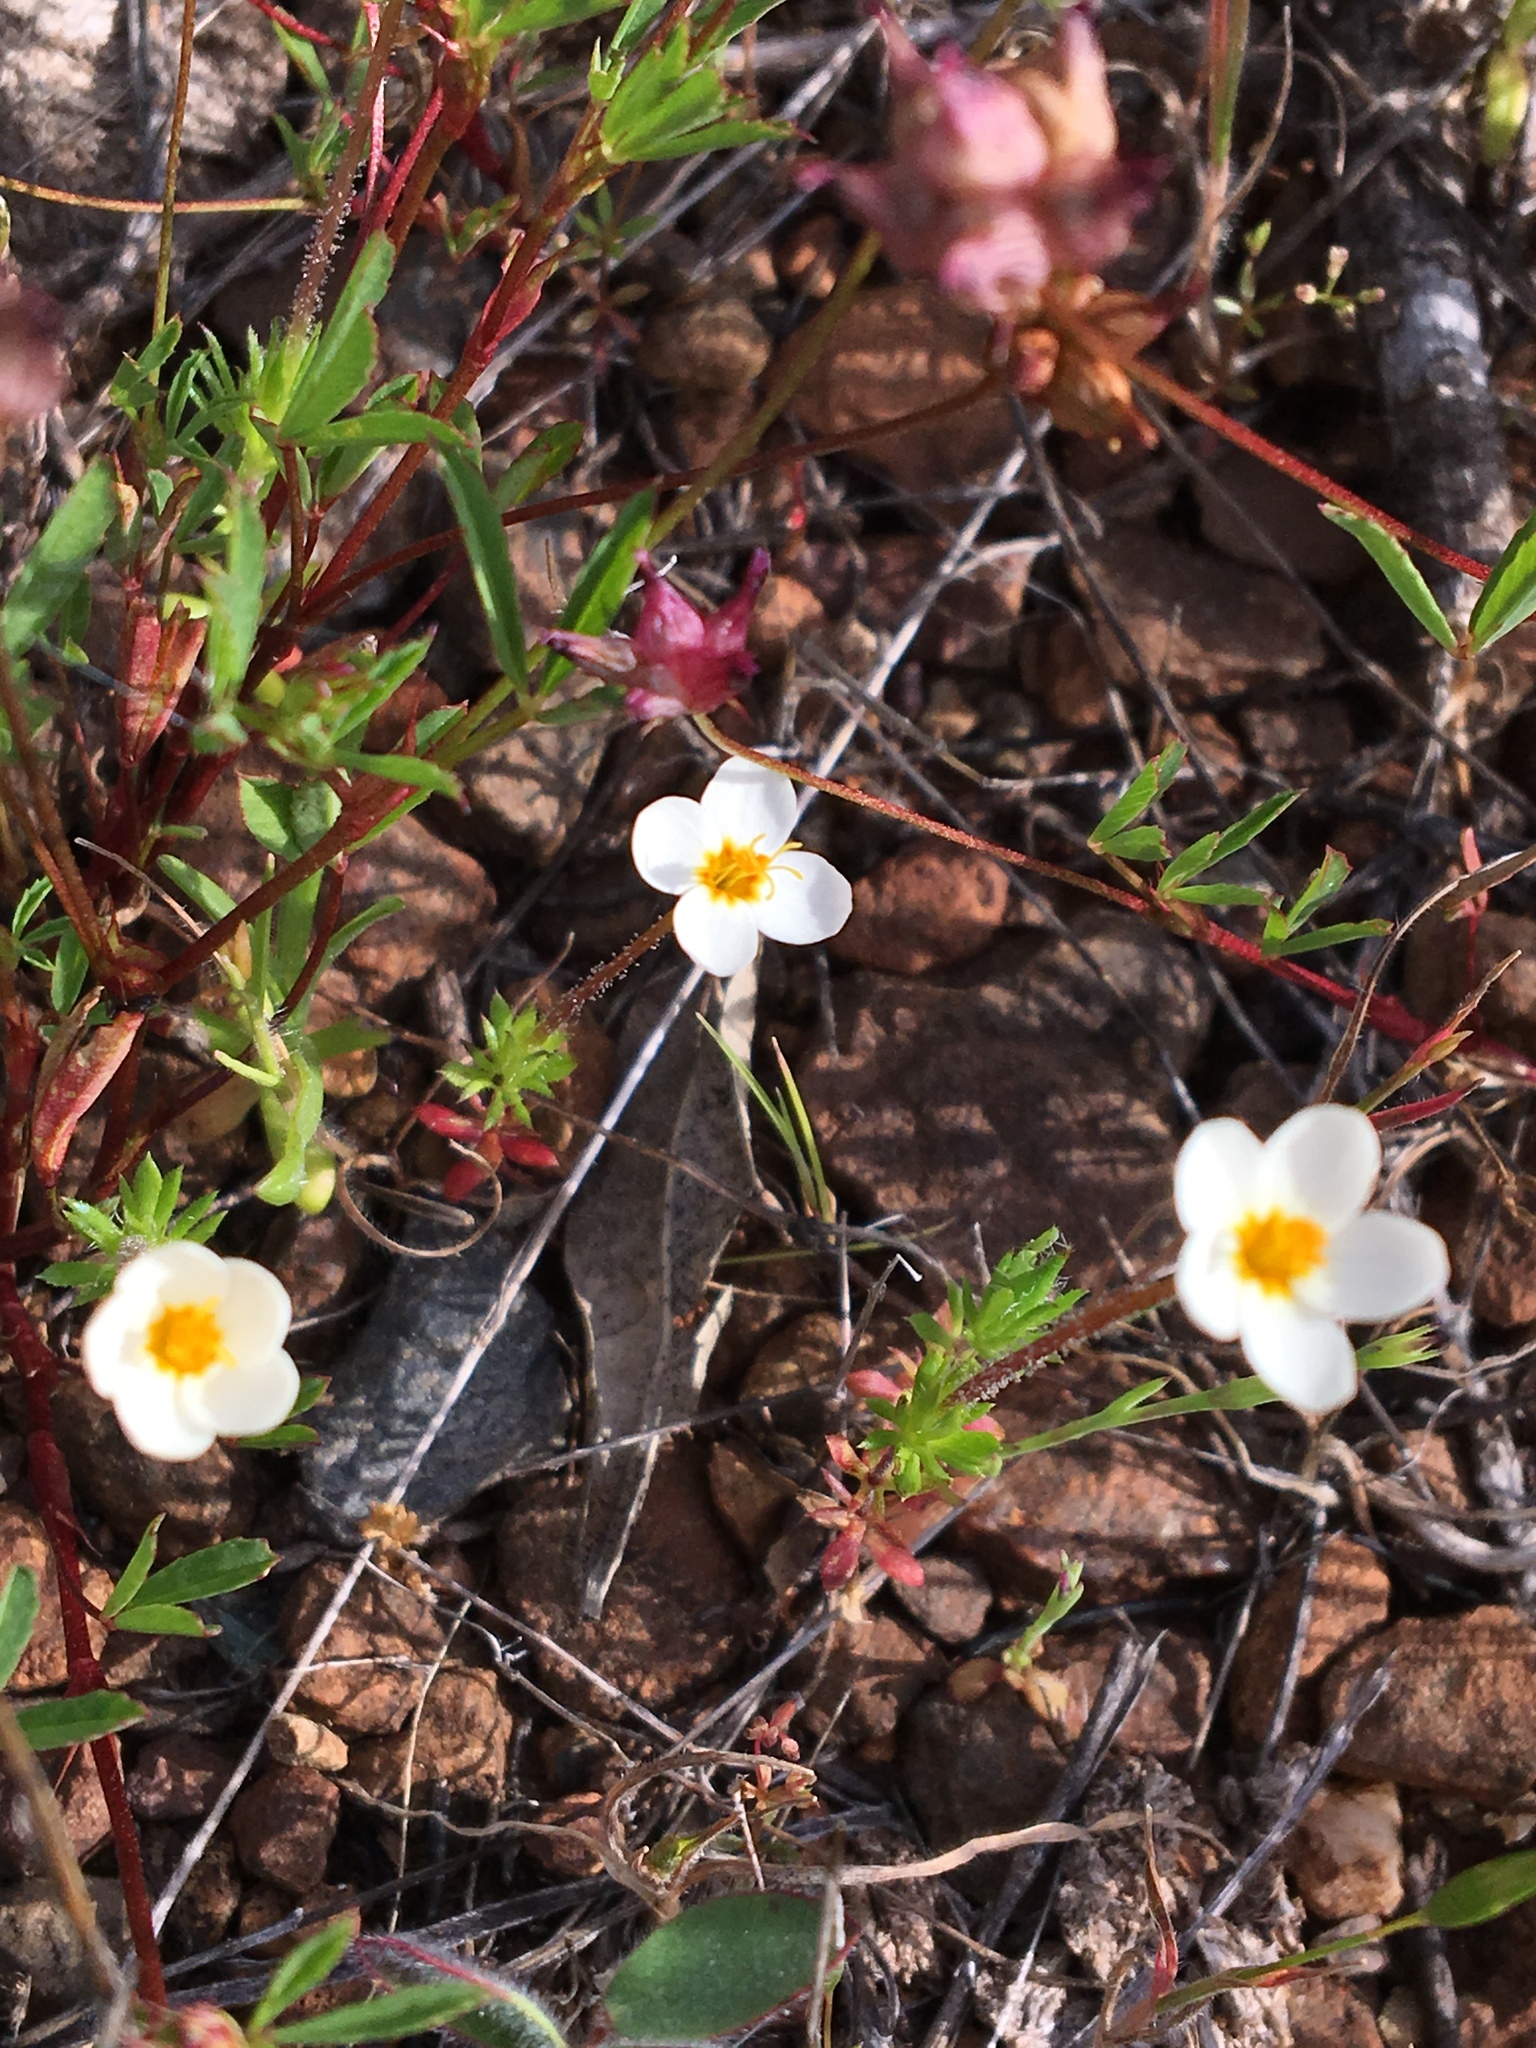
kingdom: Plantae
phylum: Tracheophyta
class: Magnoliopsida
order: Ericales
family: Polemoniaceae
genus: Leptosiphon
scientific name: Leptosiphon parviflorus
